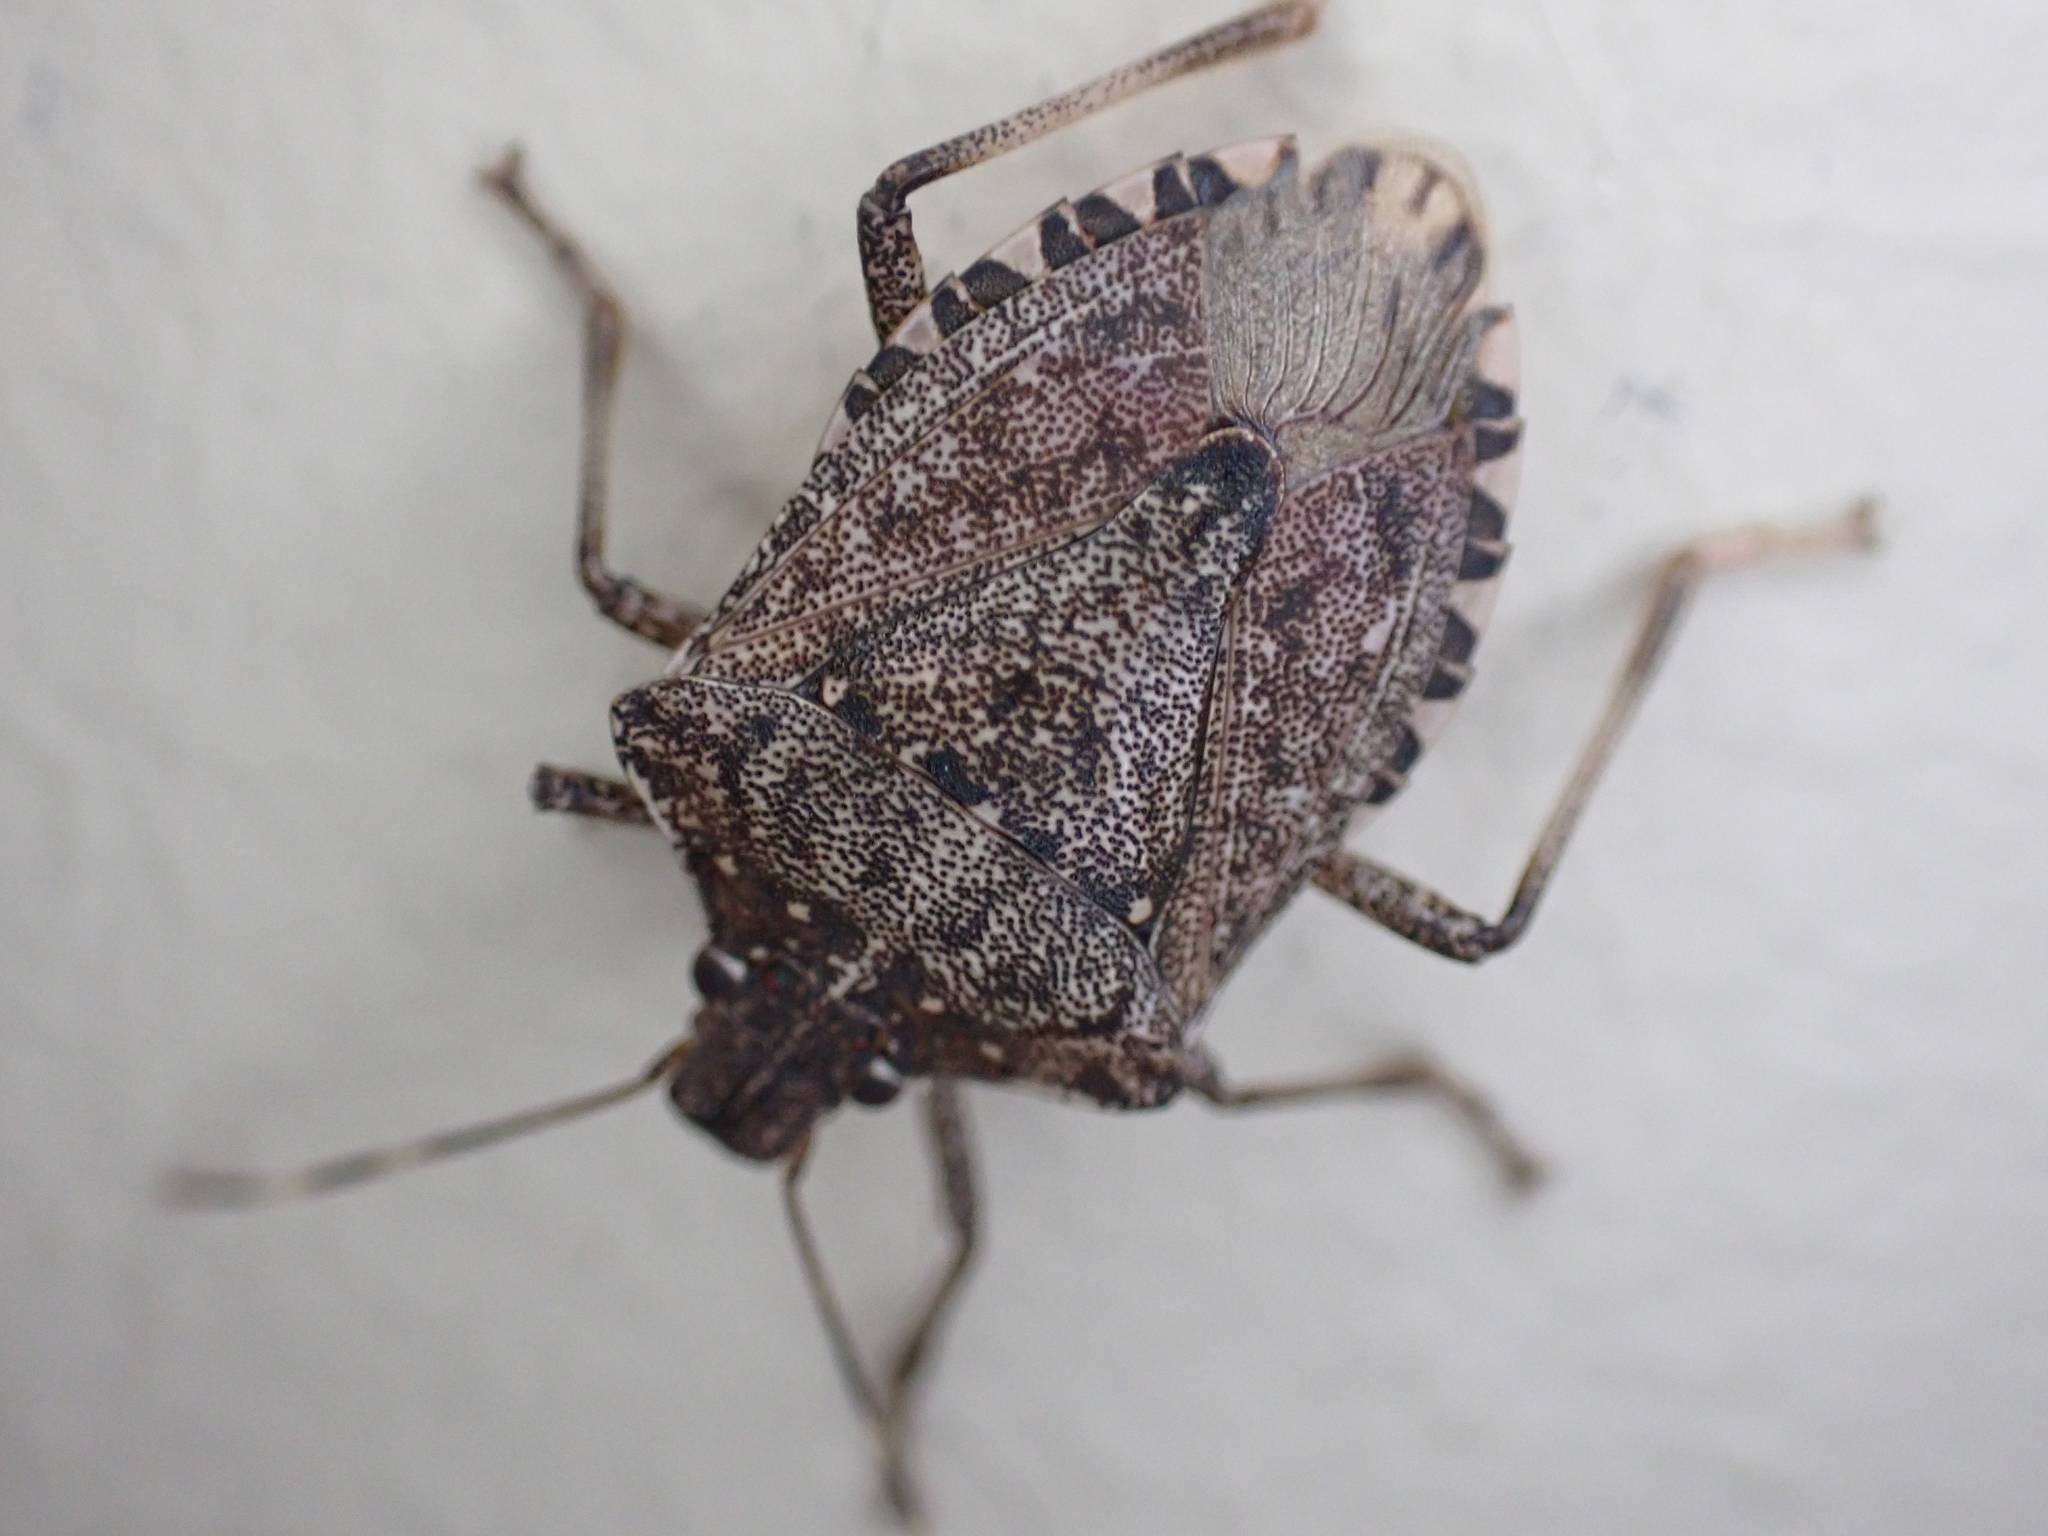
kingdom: Animalia
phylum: Arthropoda
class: Insecta
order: Hemiptera
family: Pentatomidae
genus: Halyomorpha
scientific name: Halyomorpha halys
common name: Brown marmorated stink bug
